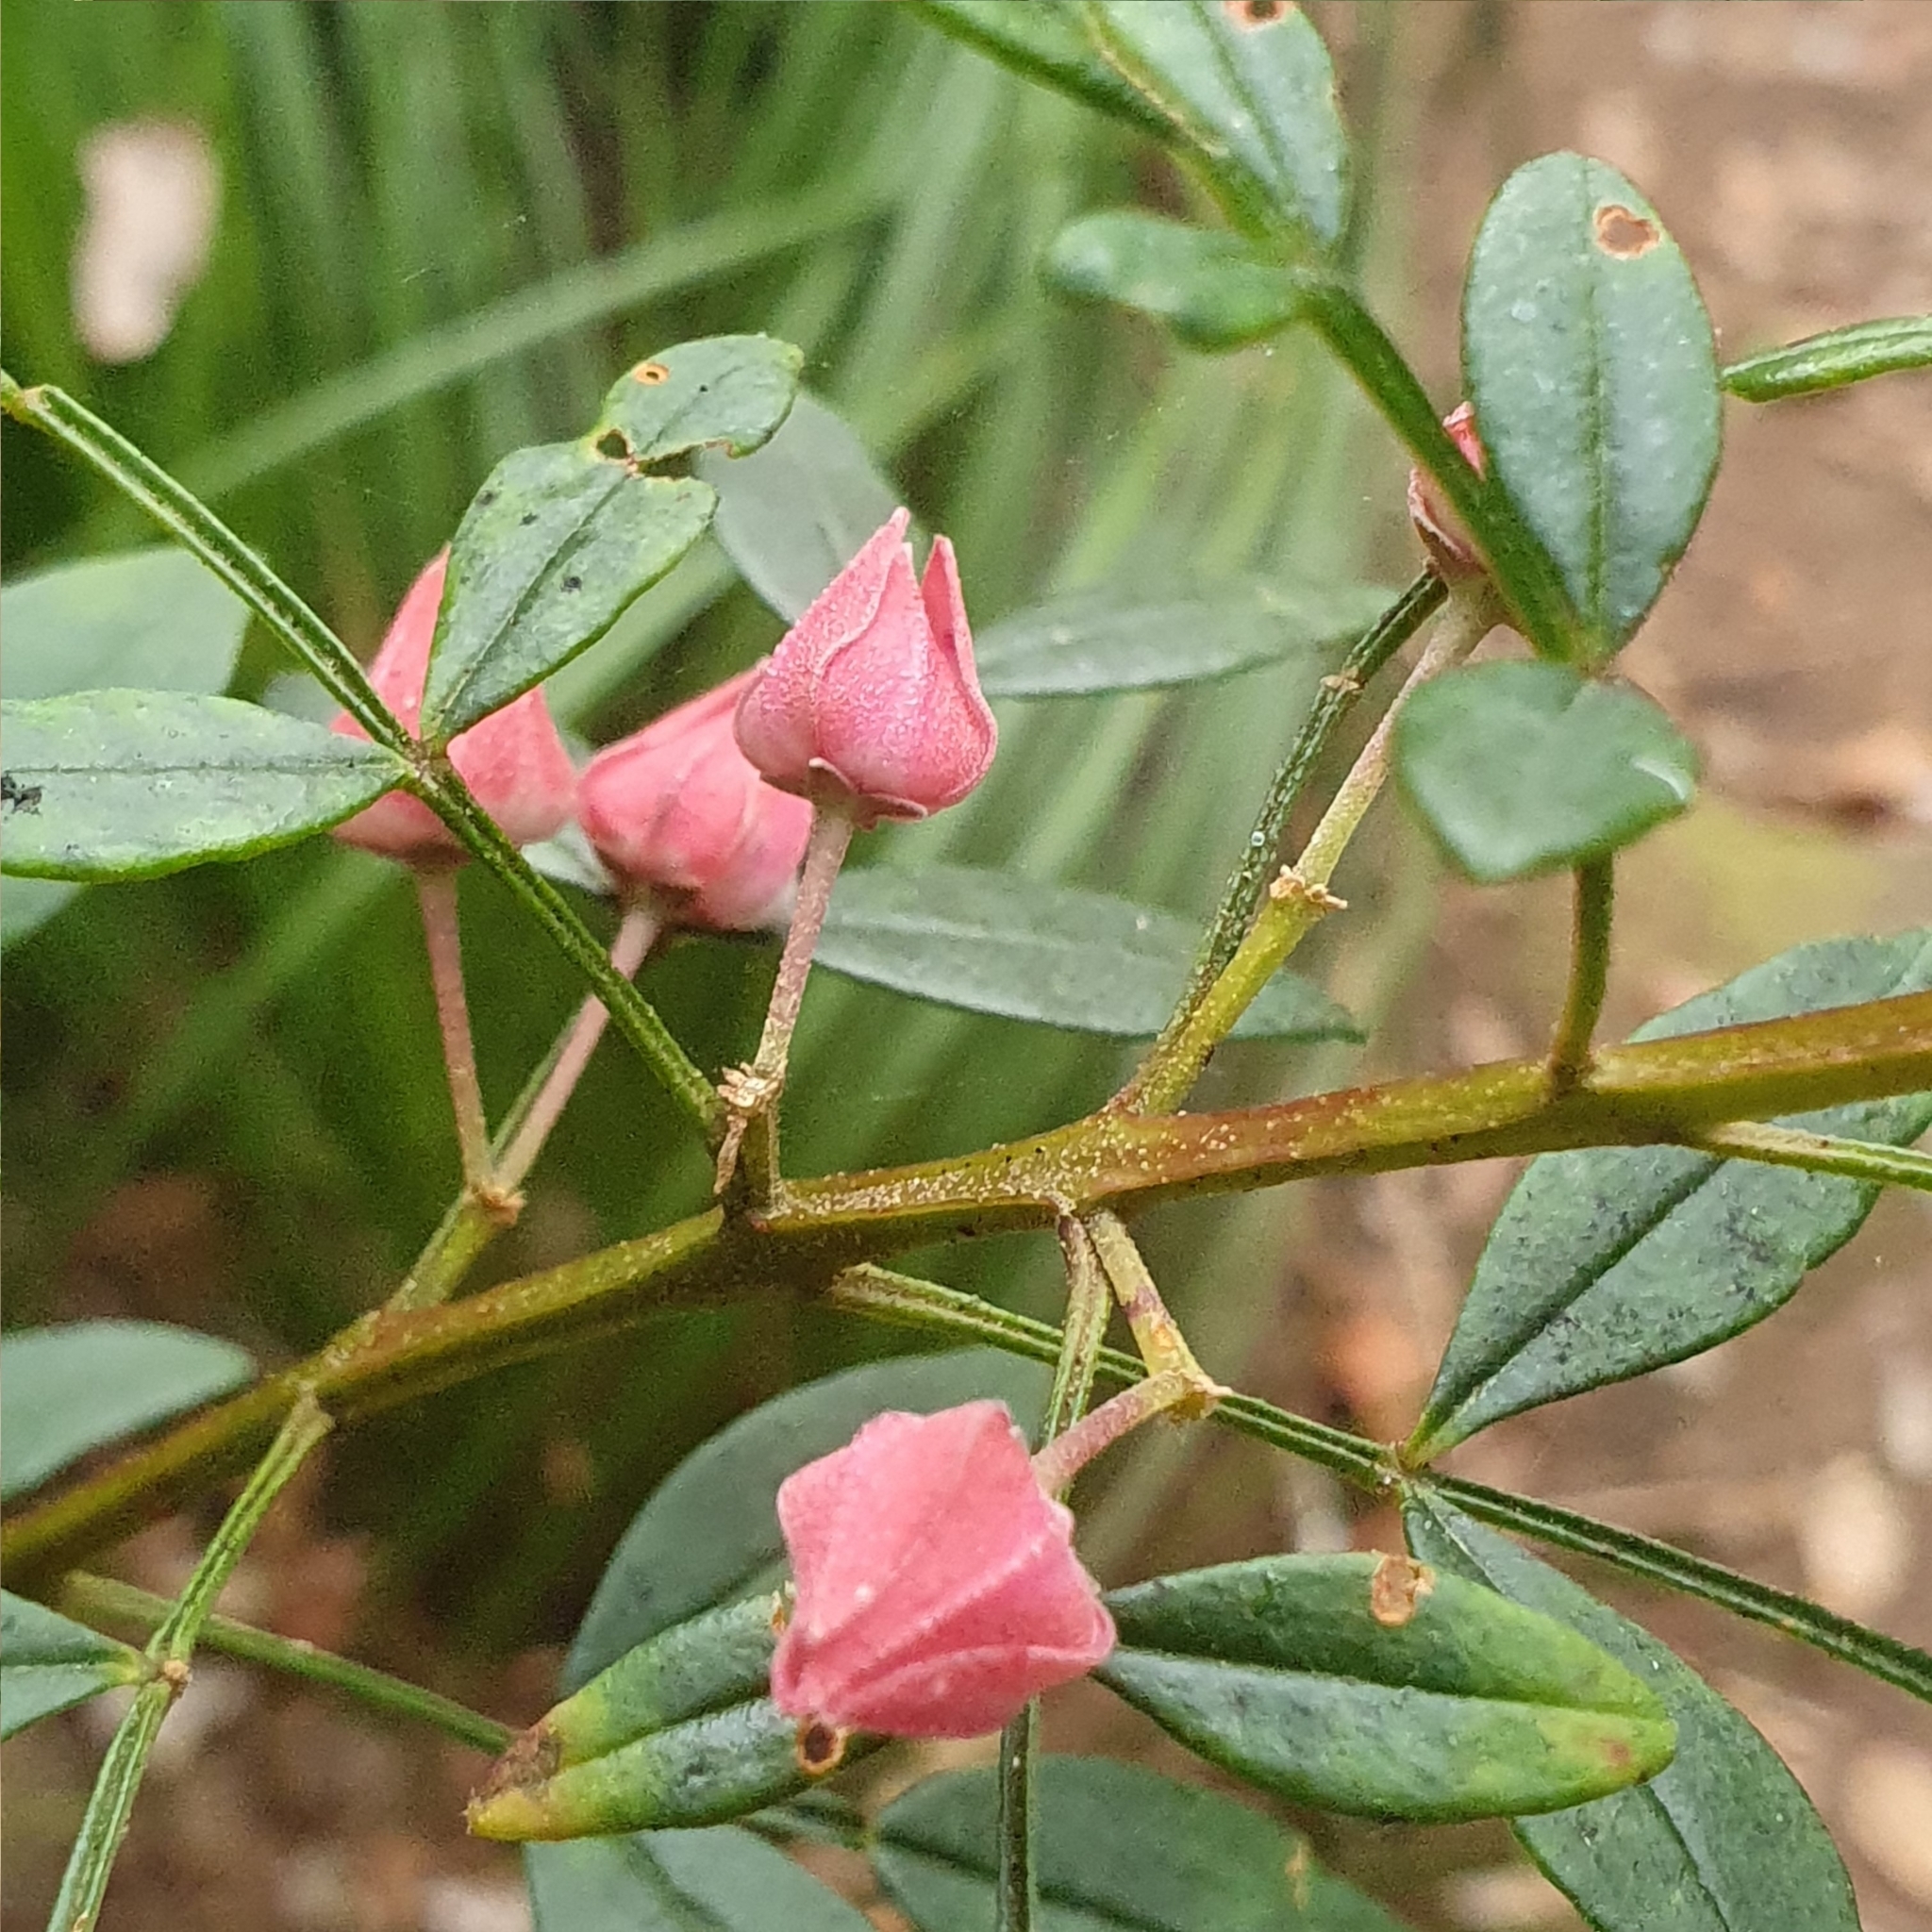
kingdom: Plantae
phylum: Tracheophyta
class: Magnoliopsida
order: Sapindales
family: Rutaceae
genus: Boronia
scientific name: Boronia fraseri
